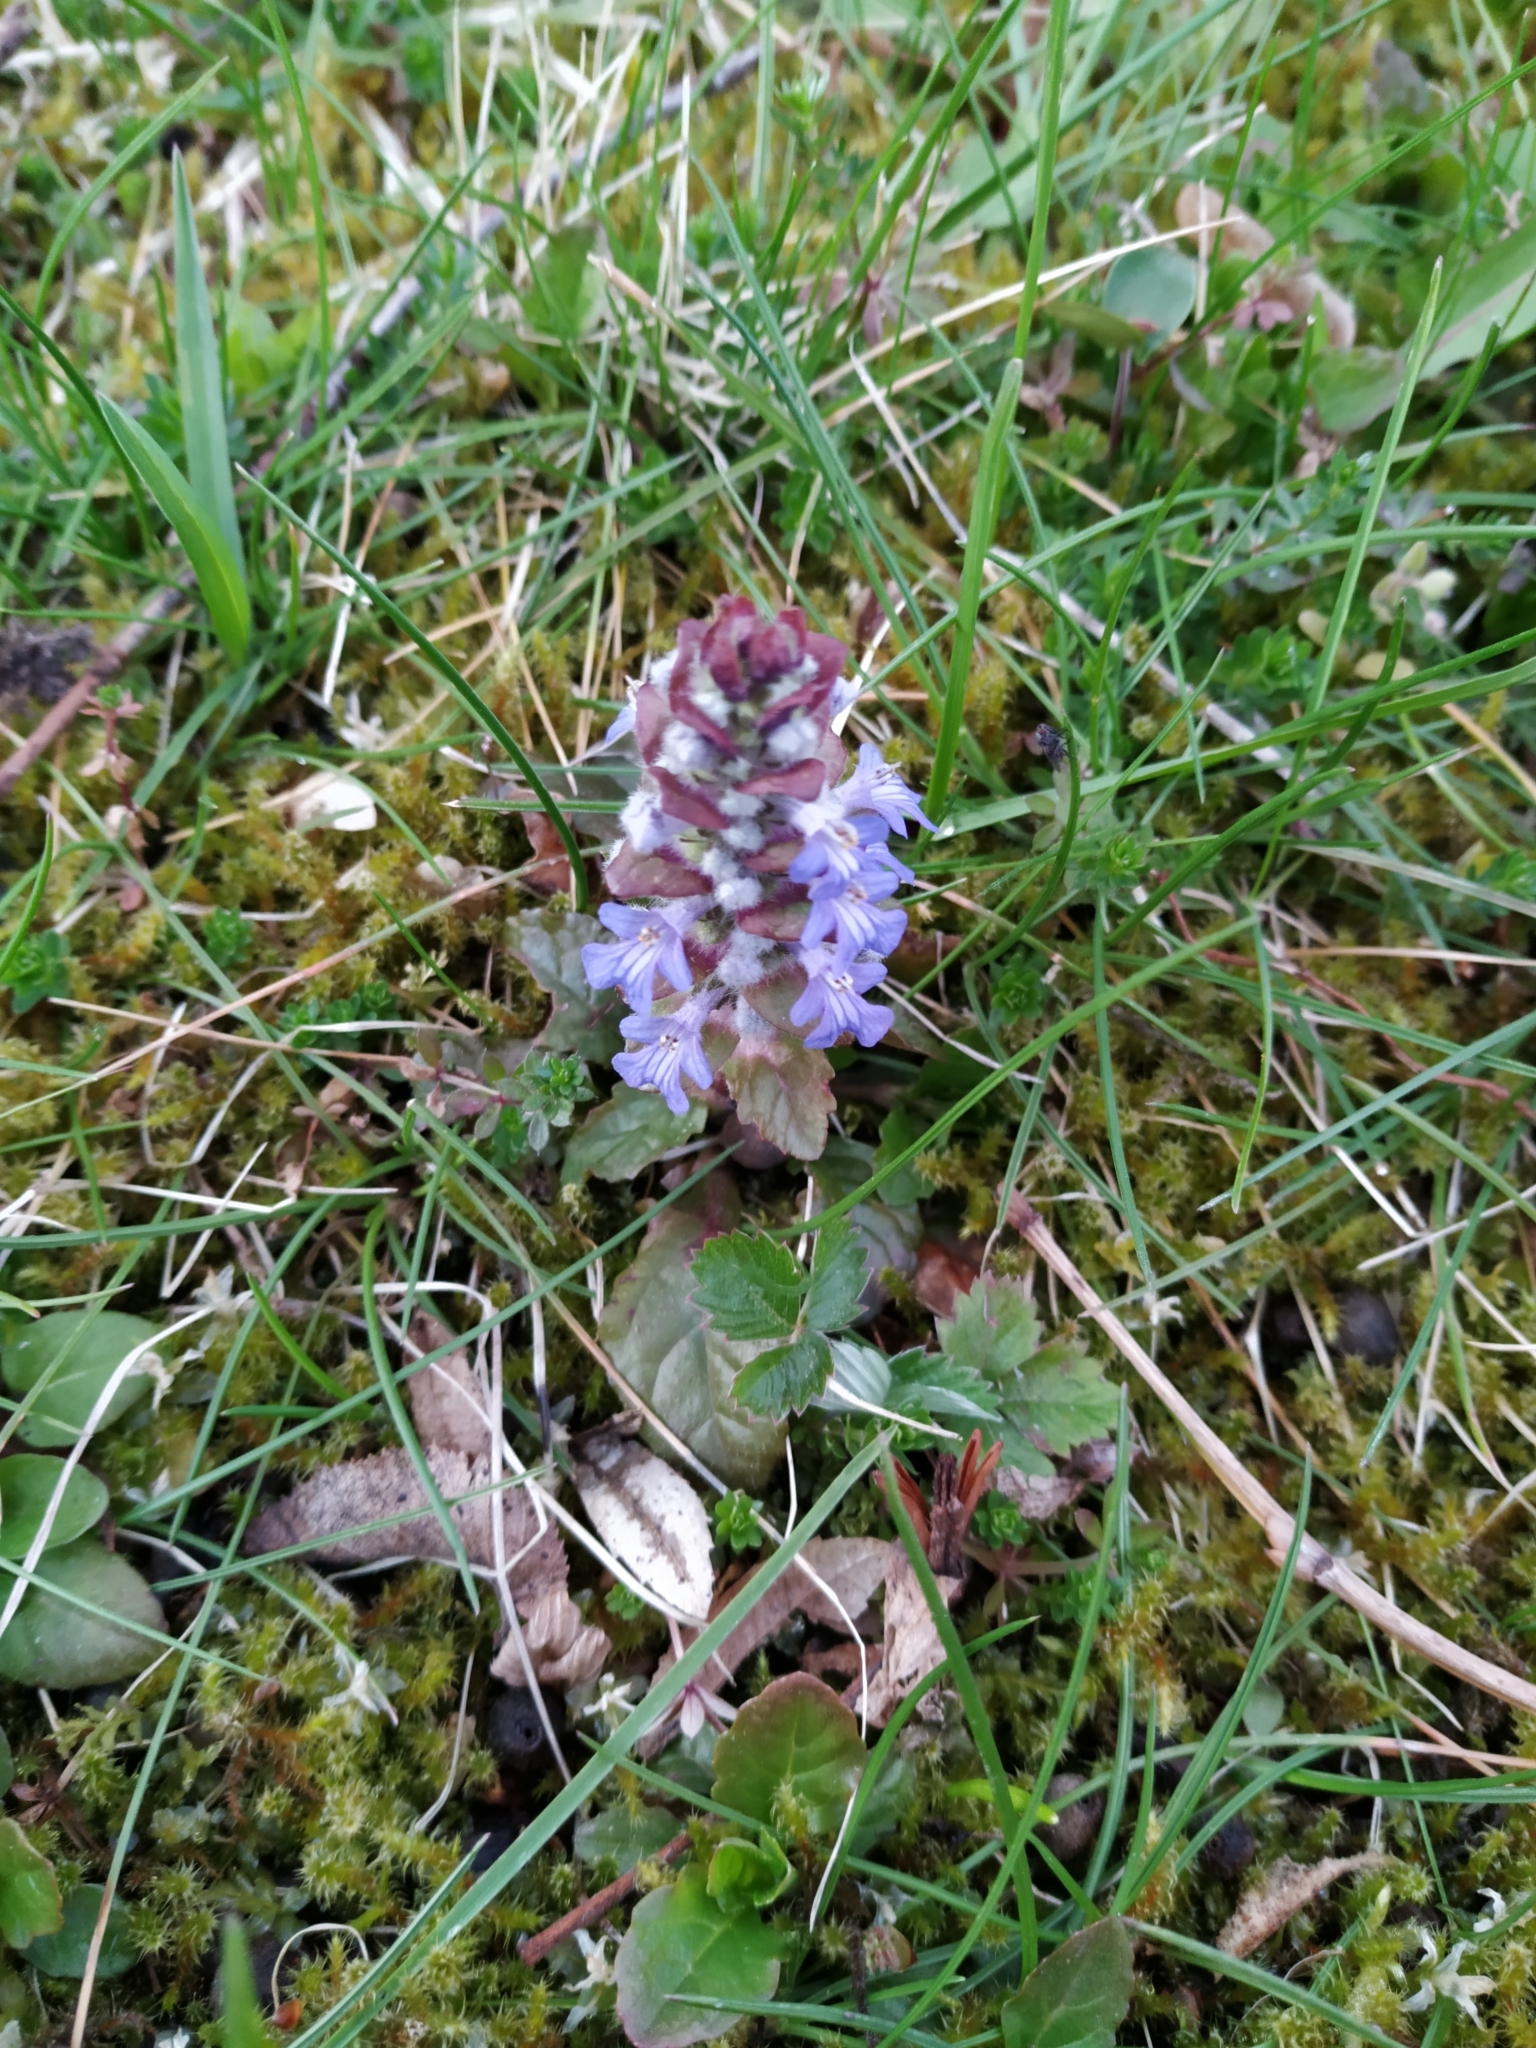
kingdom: Plantae
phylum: Tracheophyta
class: Magnoliopsida
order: Lamiales
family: Lamiaceae
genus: Ajuga
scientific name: Ajuga reptans
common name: Bugle
